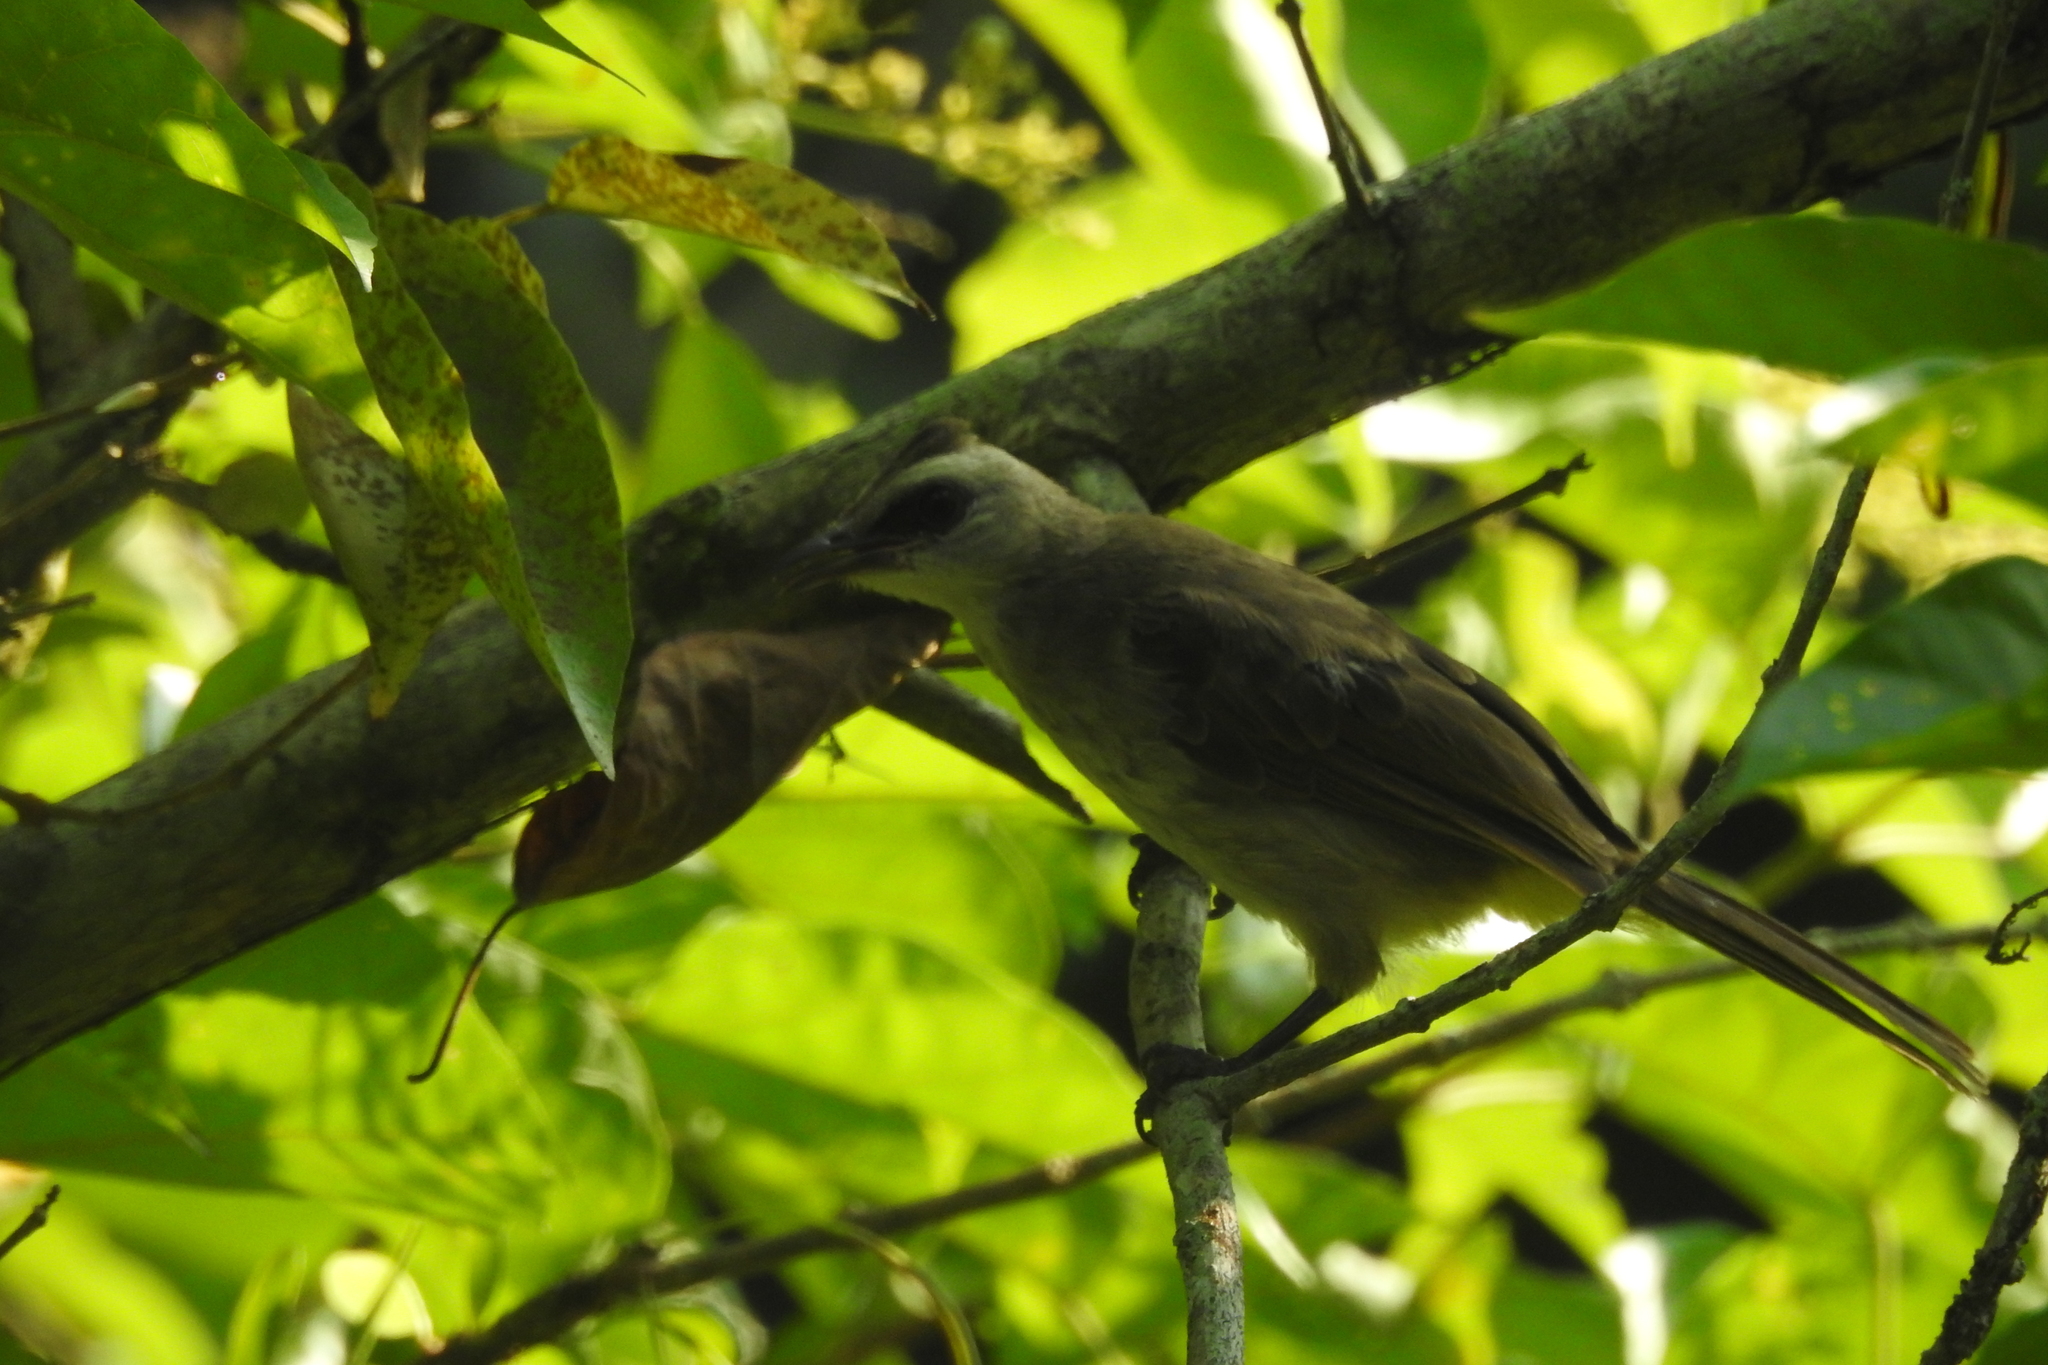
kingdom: Animalia
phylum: Chordata
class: Aves
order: Passeriformes
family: Pycnonotidae
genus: Pycnonotus
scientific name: Pycnonotus goiavier
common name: Yellow-vented bulbul
